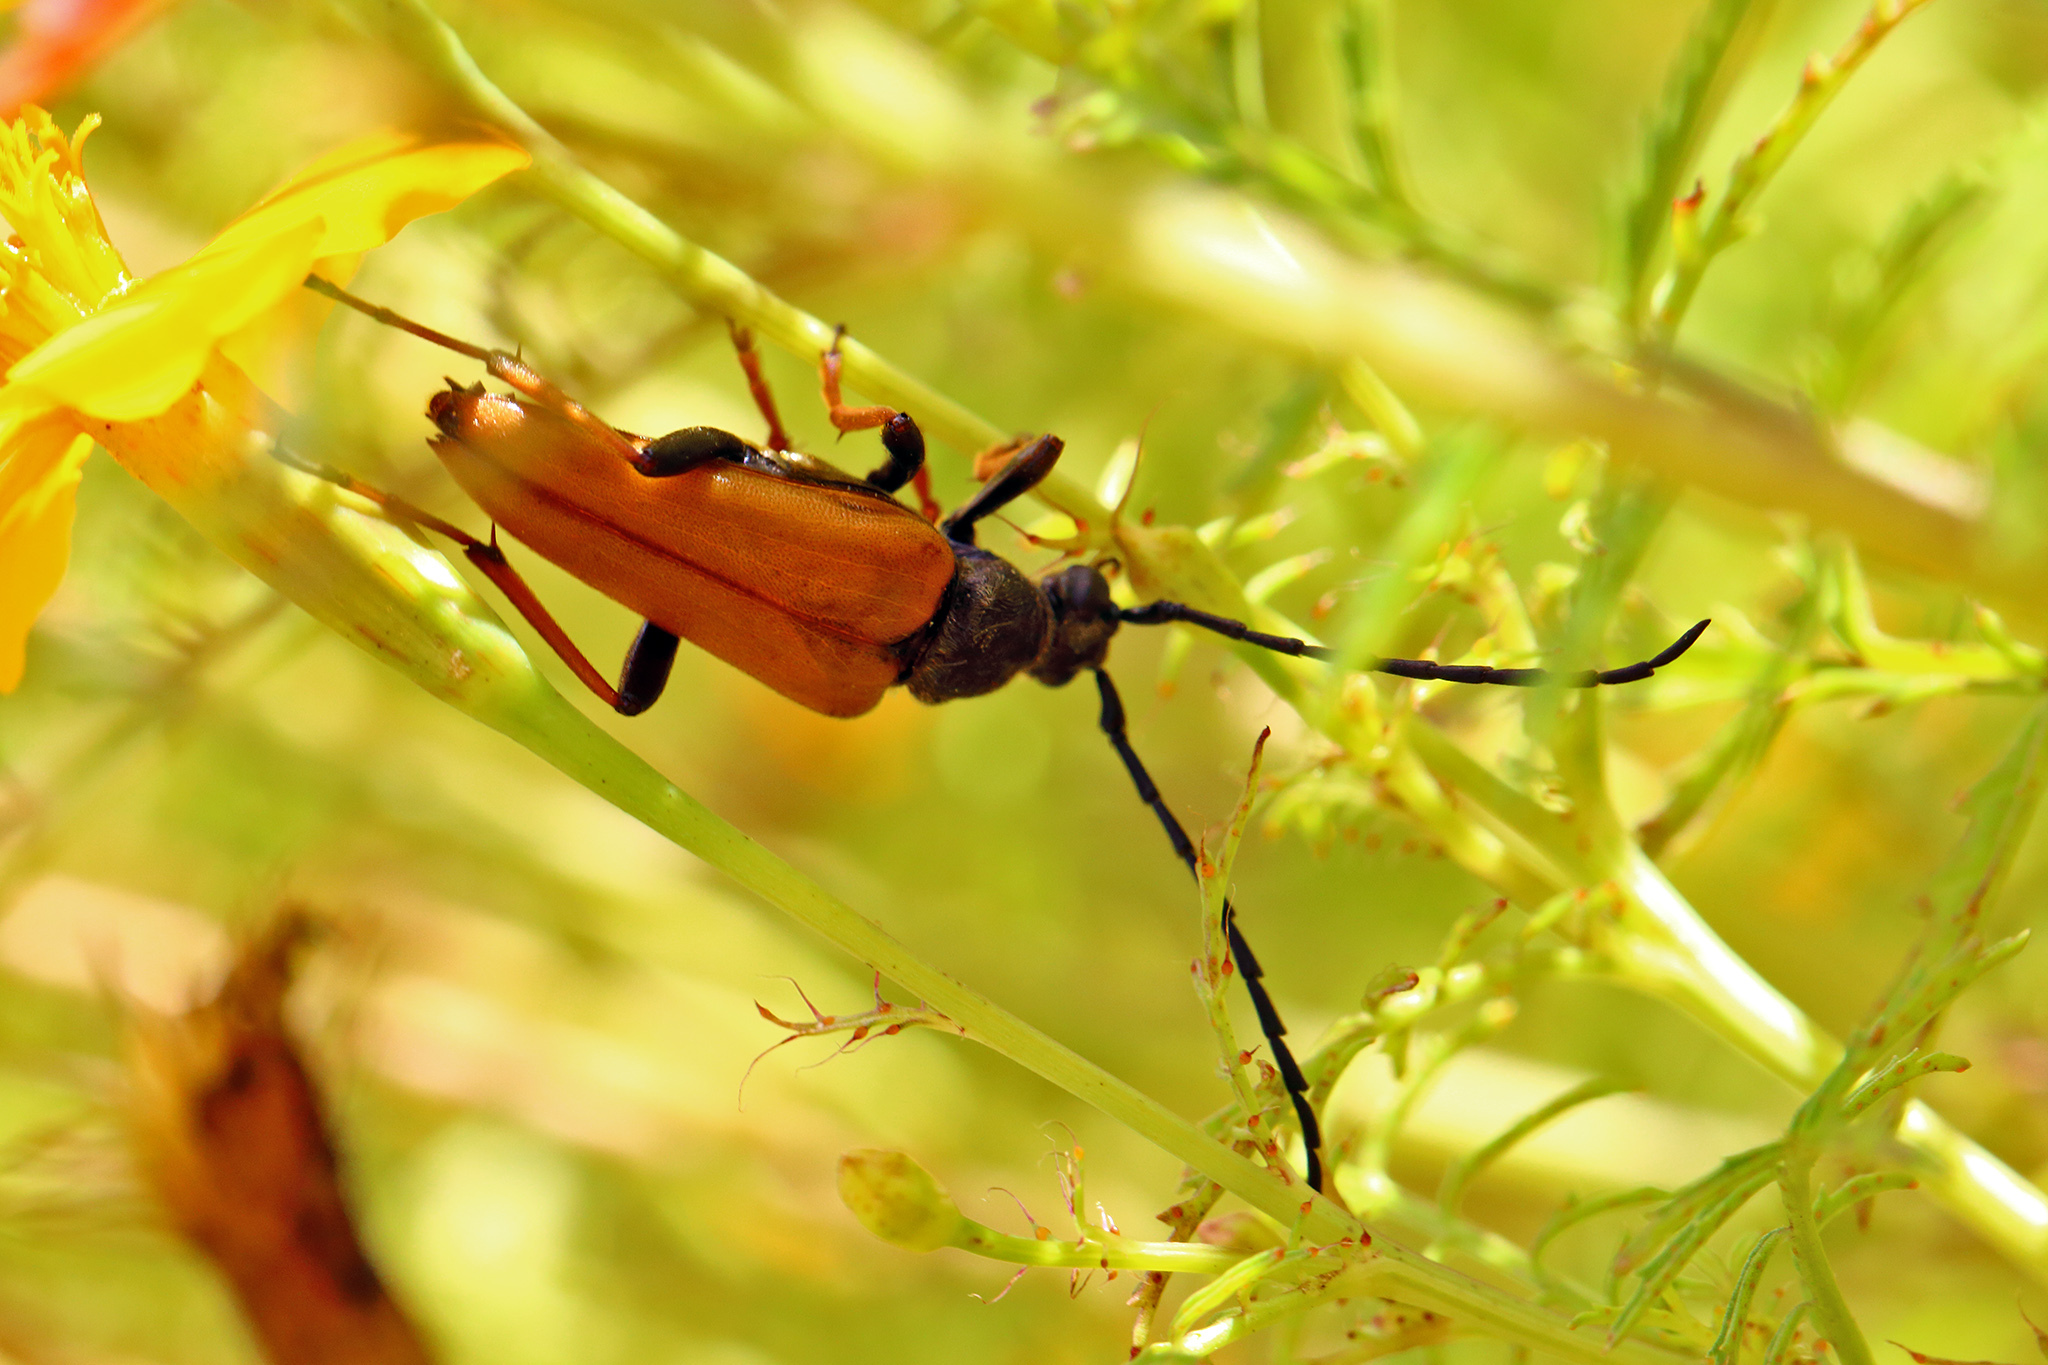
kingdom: Animalia
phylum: Arthropoda
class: Insecta
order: Coleoptera
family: Cerambycidae
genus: Stictoleptura
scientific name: Stictoleptura rubra
